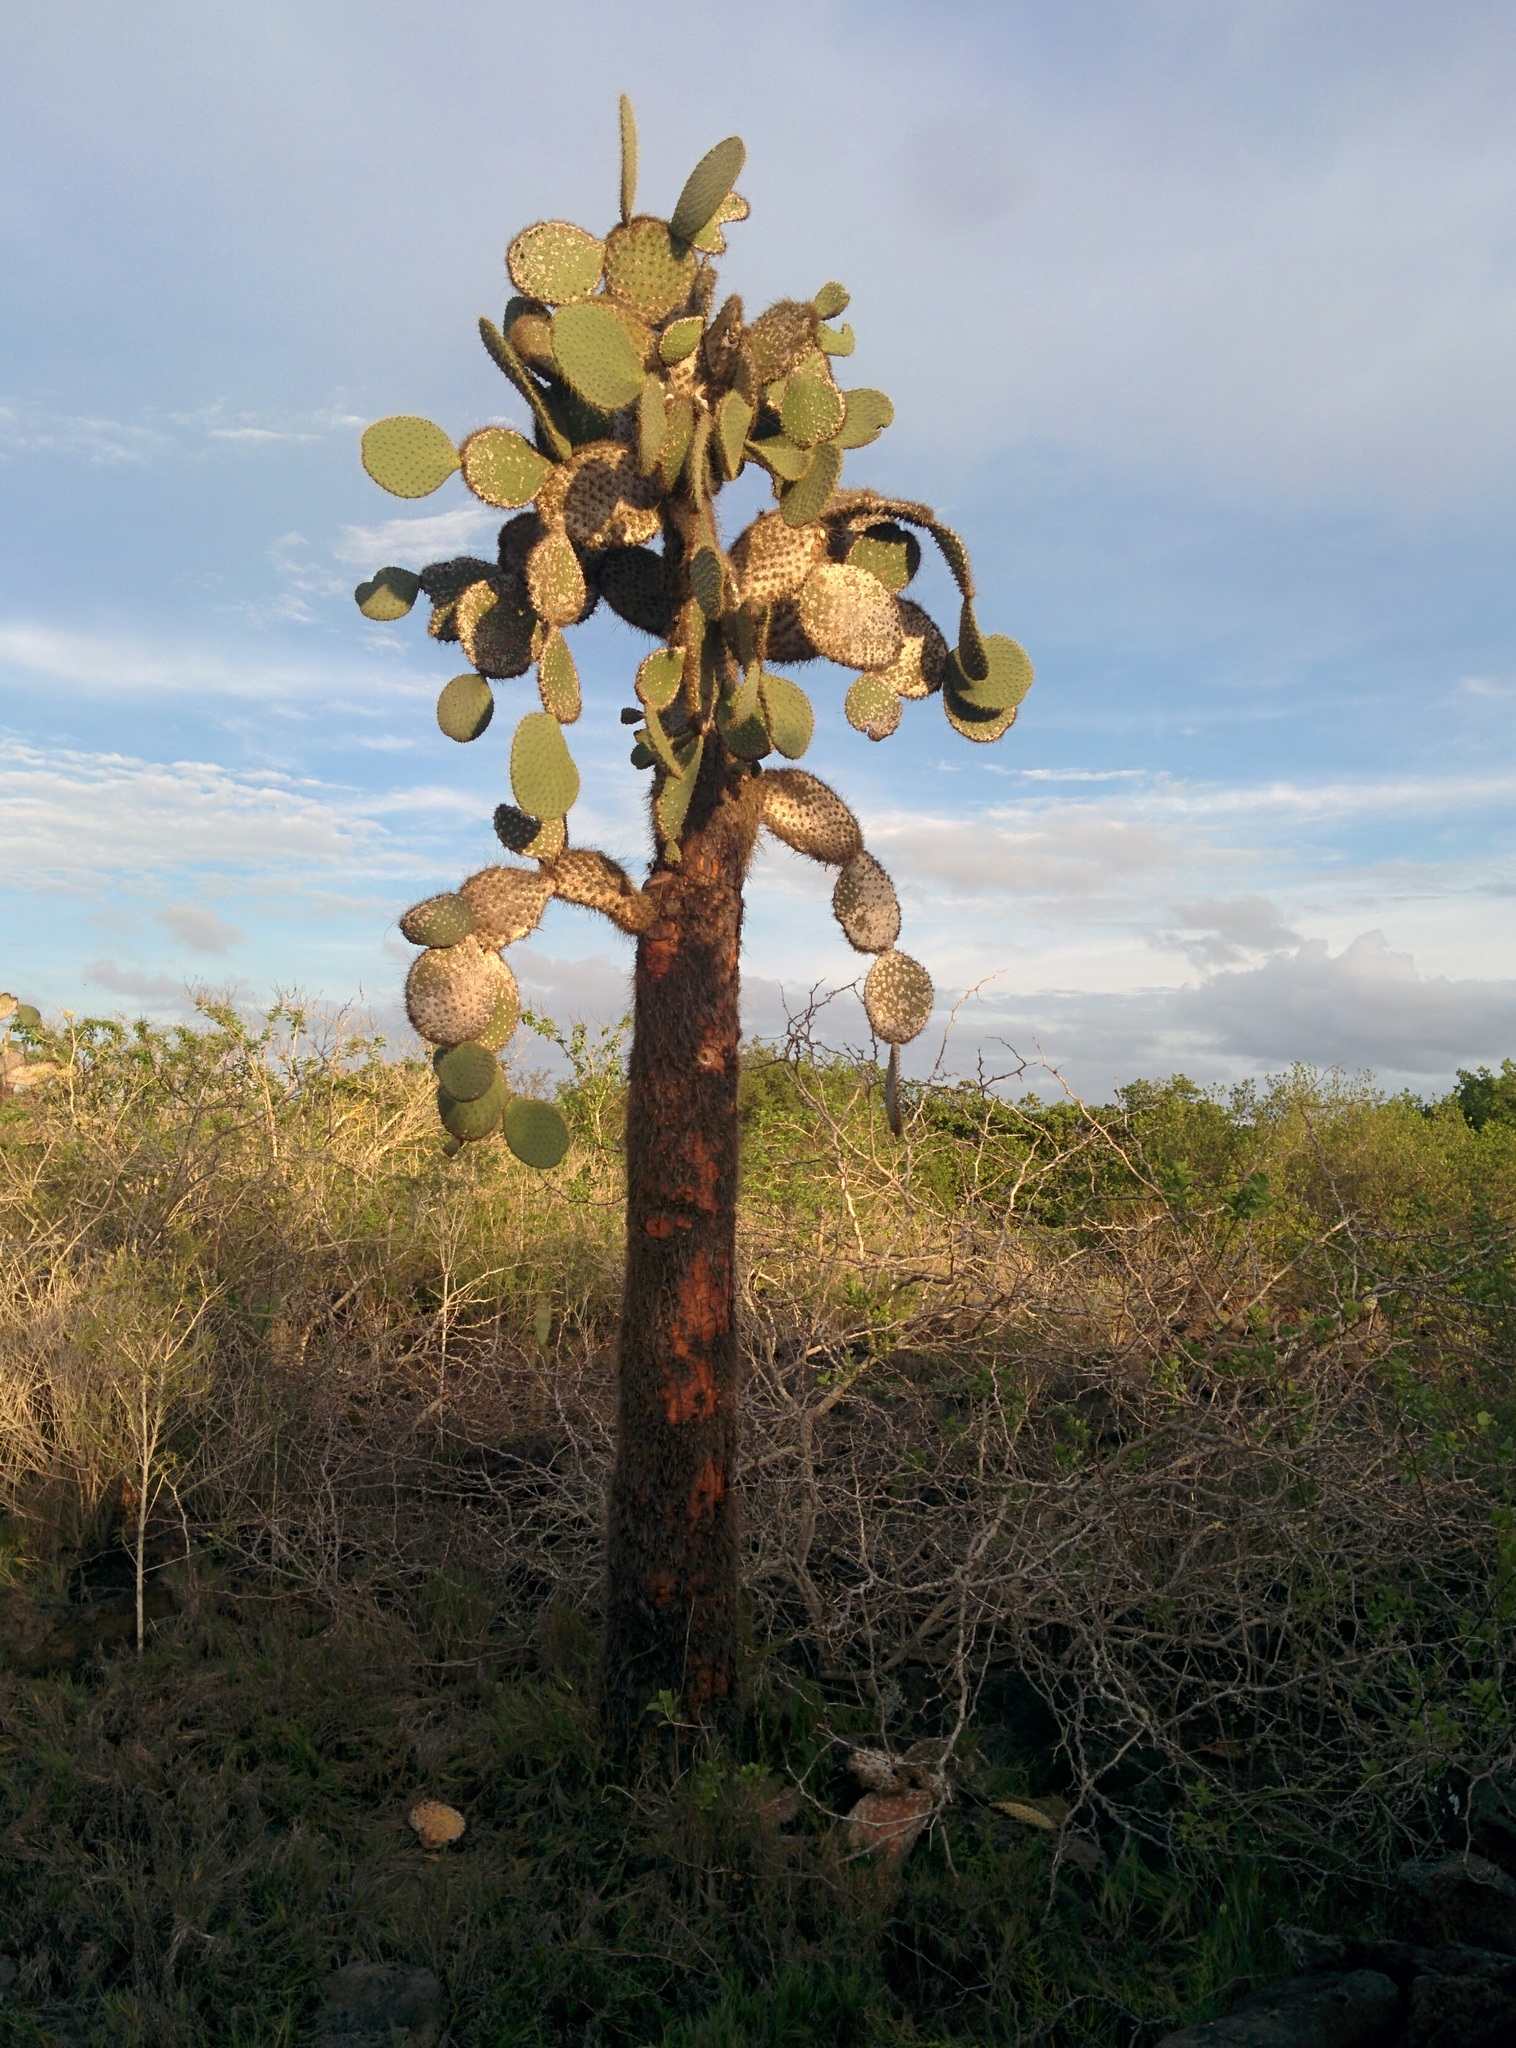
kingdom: Plantae
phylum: Tracheophyta
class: Magnoliopsida
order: Caryophyllales
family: Cactaceae
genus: Opuntia
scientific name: Opuntia galapageia
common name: Galápagos prickly pear
